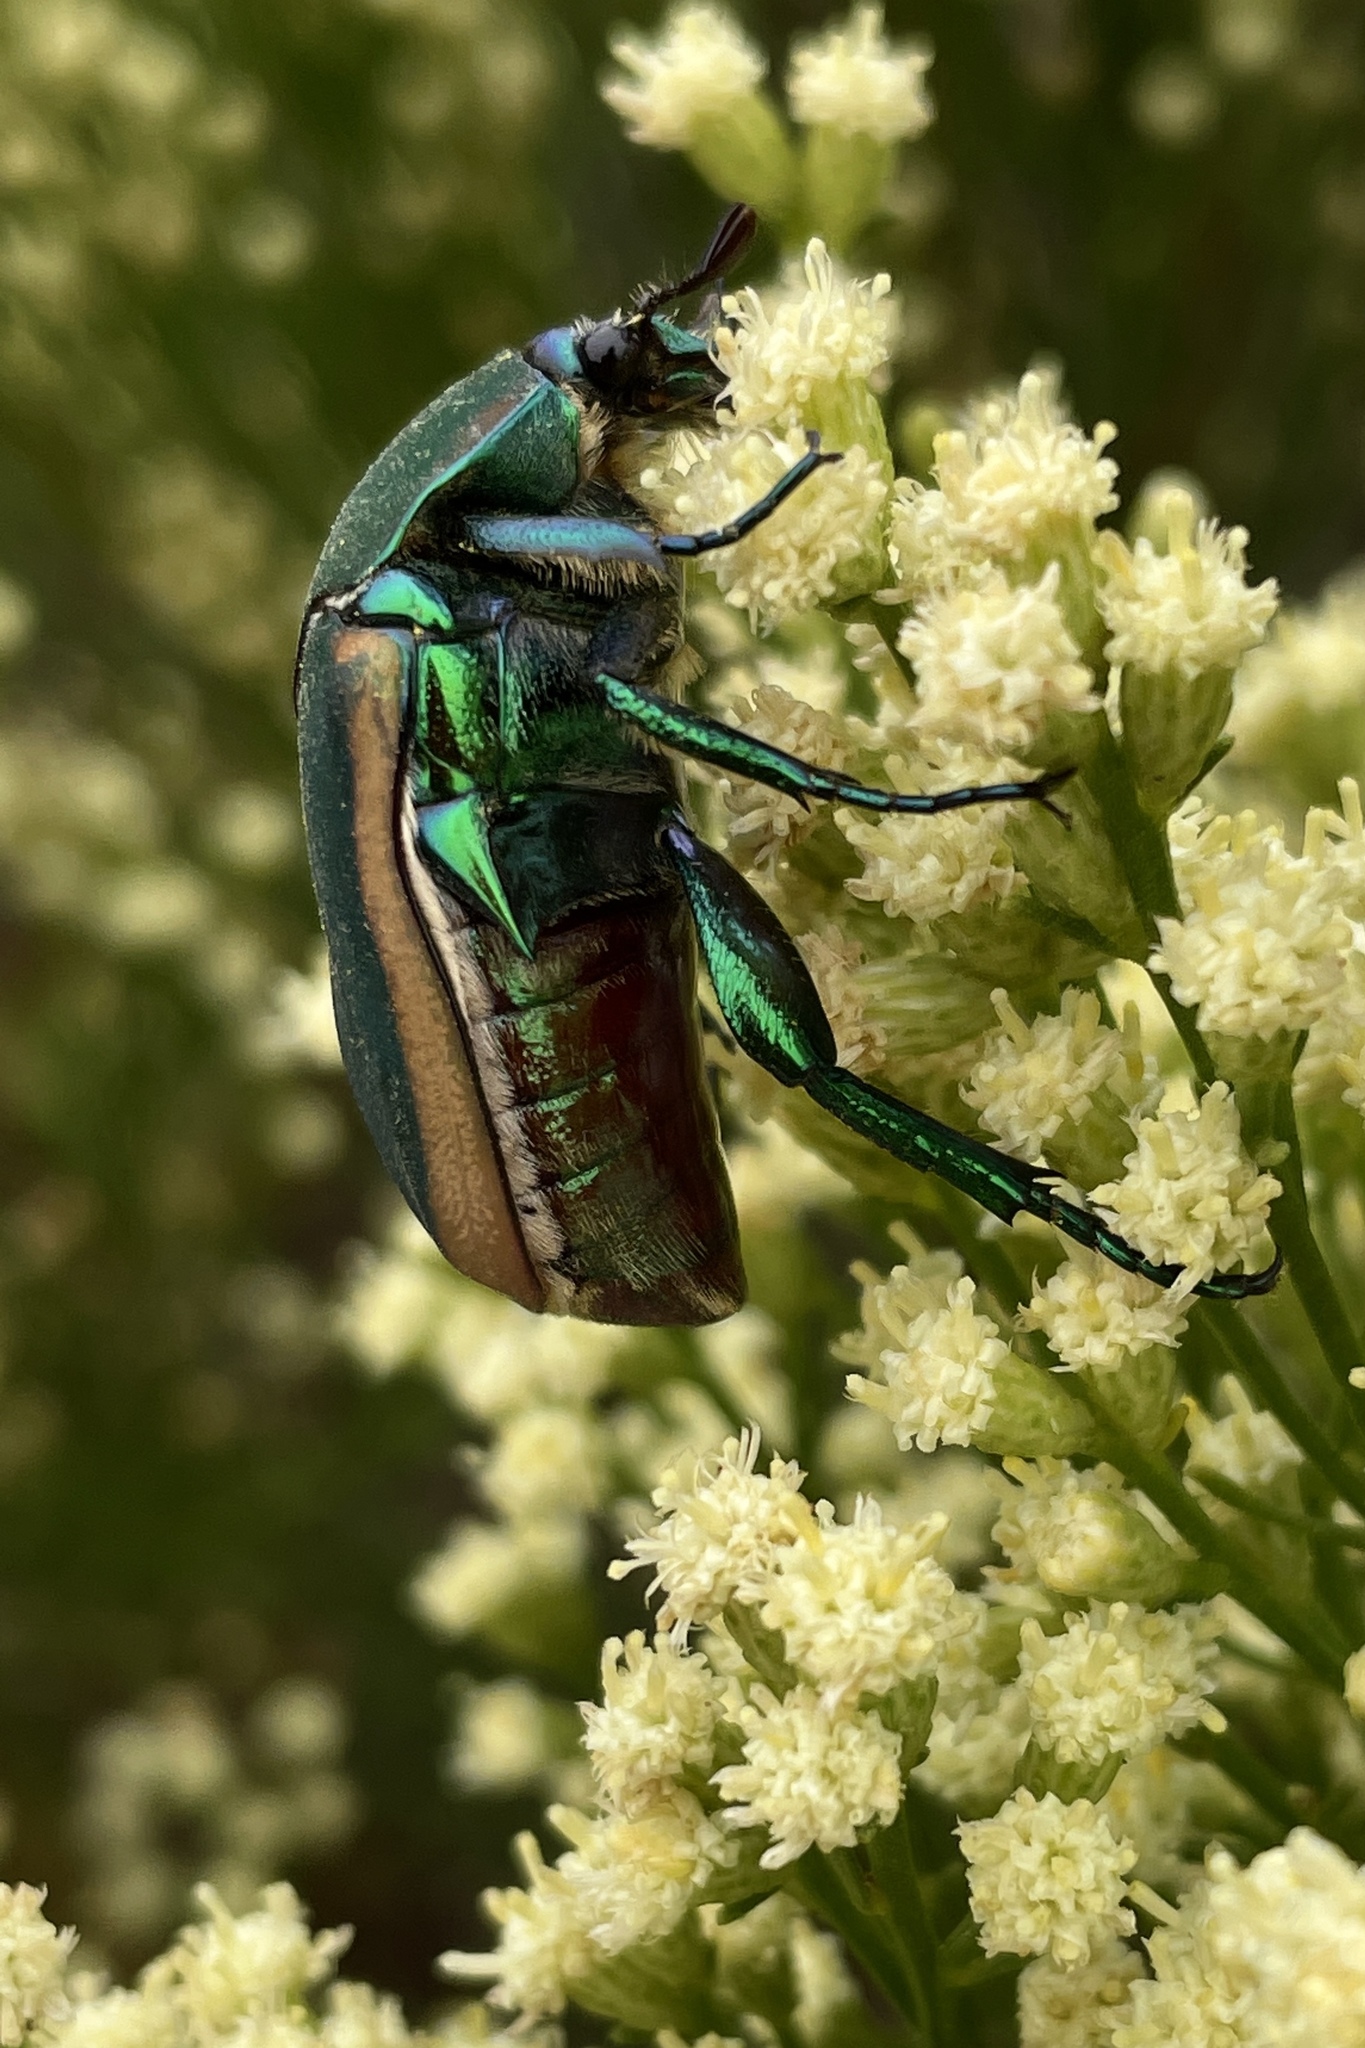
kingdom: Animalia
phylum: Arthropoda
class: Insecta
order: Coleoptera
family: Scarabaeidae
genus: Cotinis
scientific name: Cotinis mutabilis
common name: Figeater beetle
